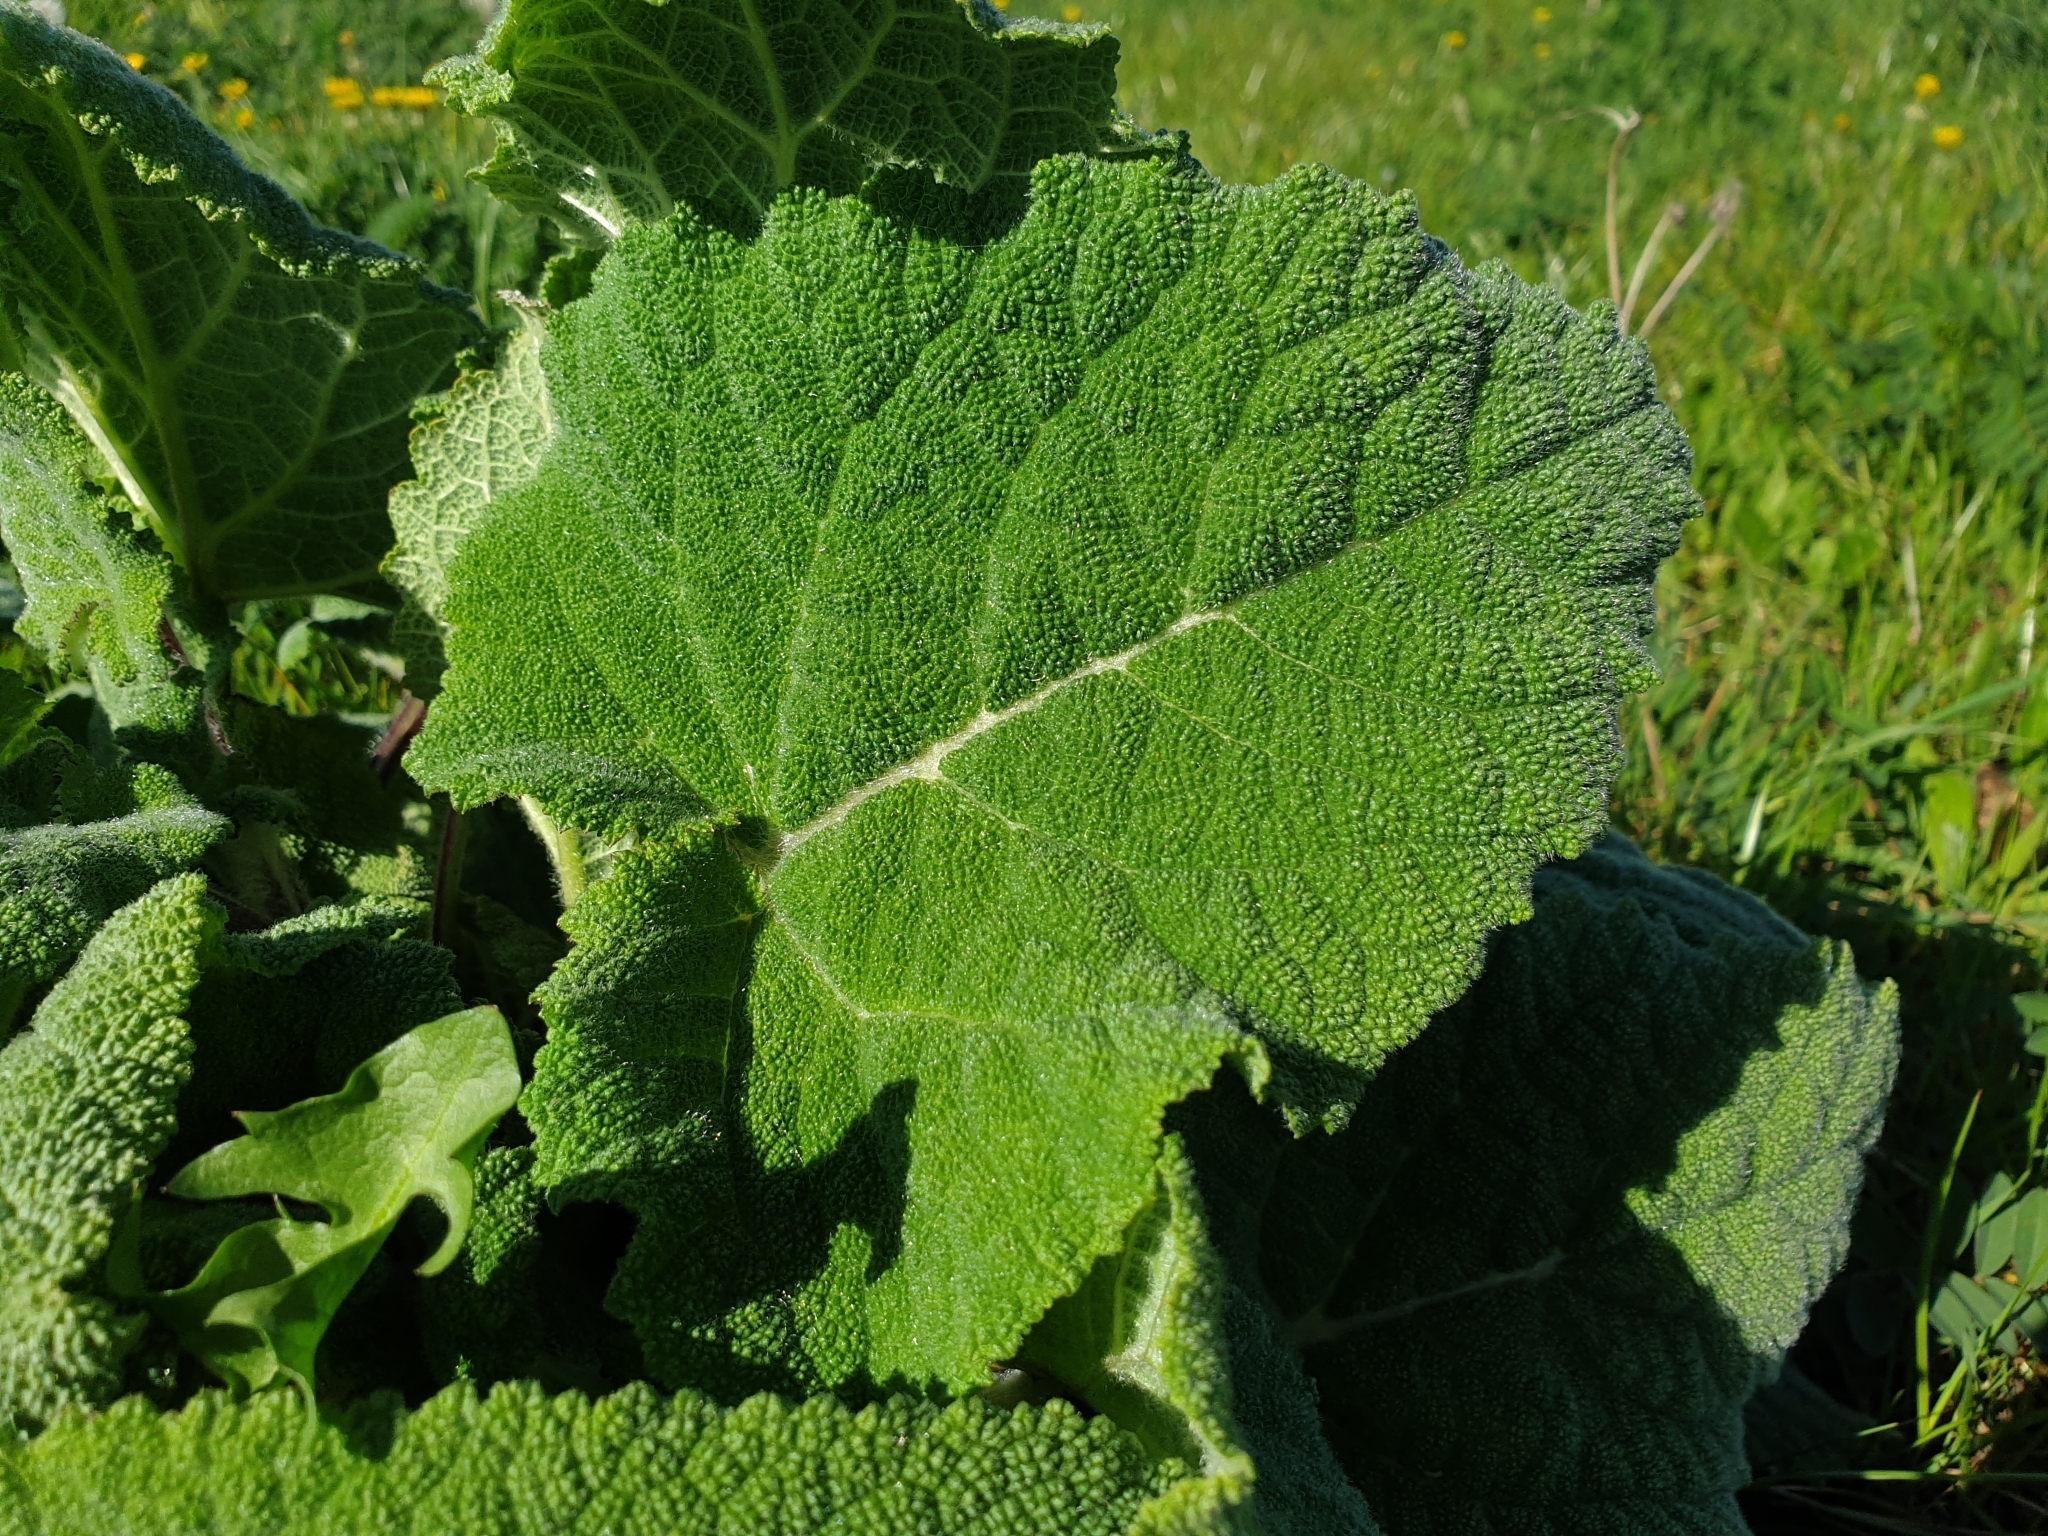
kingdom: Plantae
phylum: Tracheophyta
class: Magnoliopsida
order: Lamiales
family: Lamiaceae
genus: Salvia
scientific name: Salvia sclarea
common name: Clary
